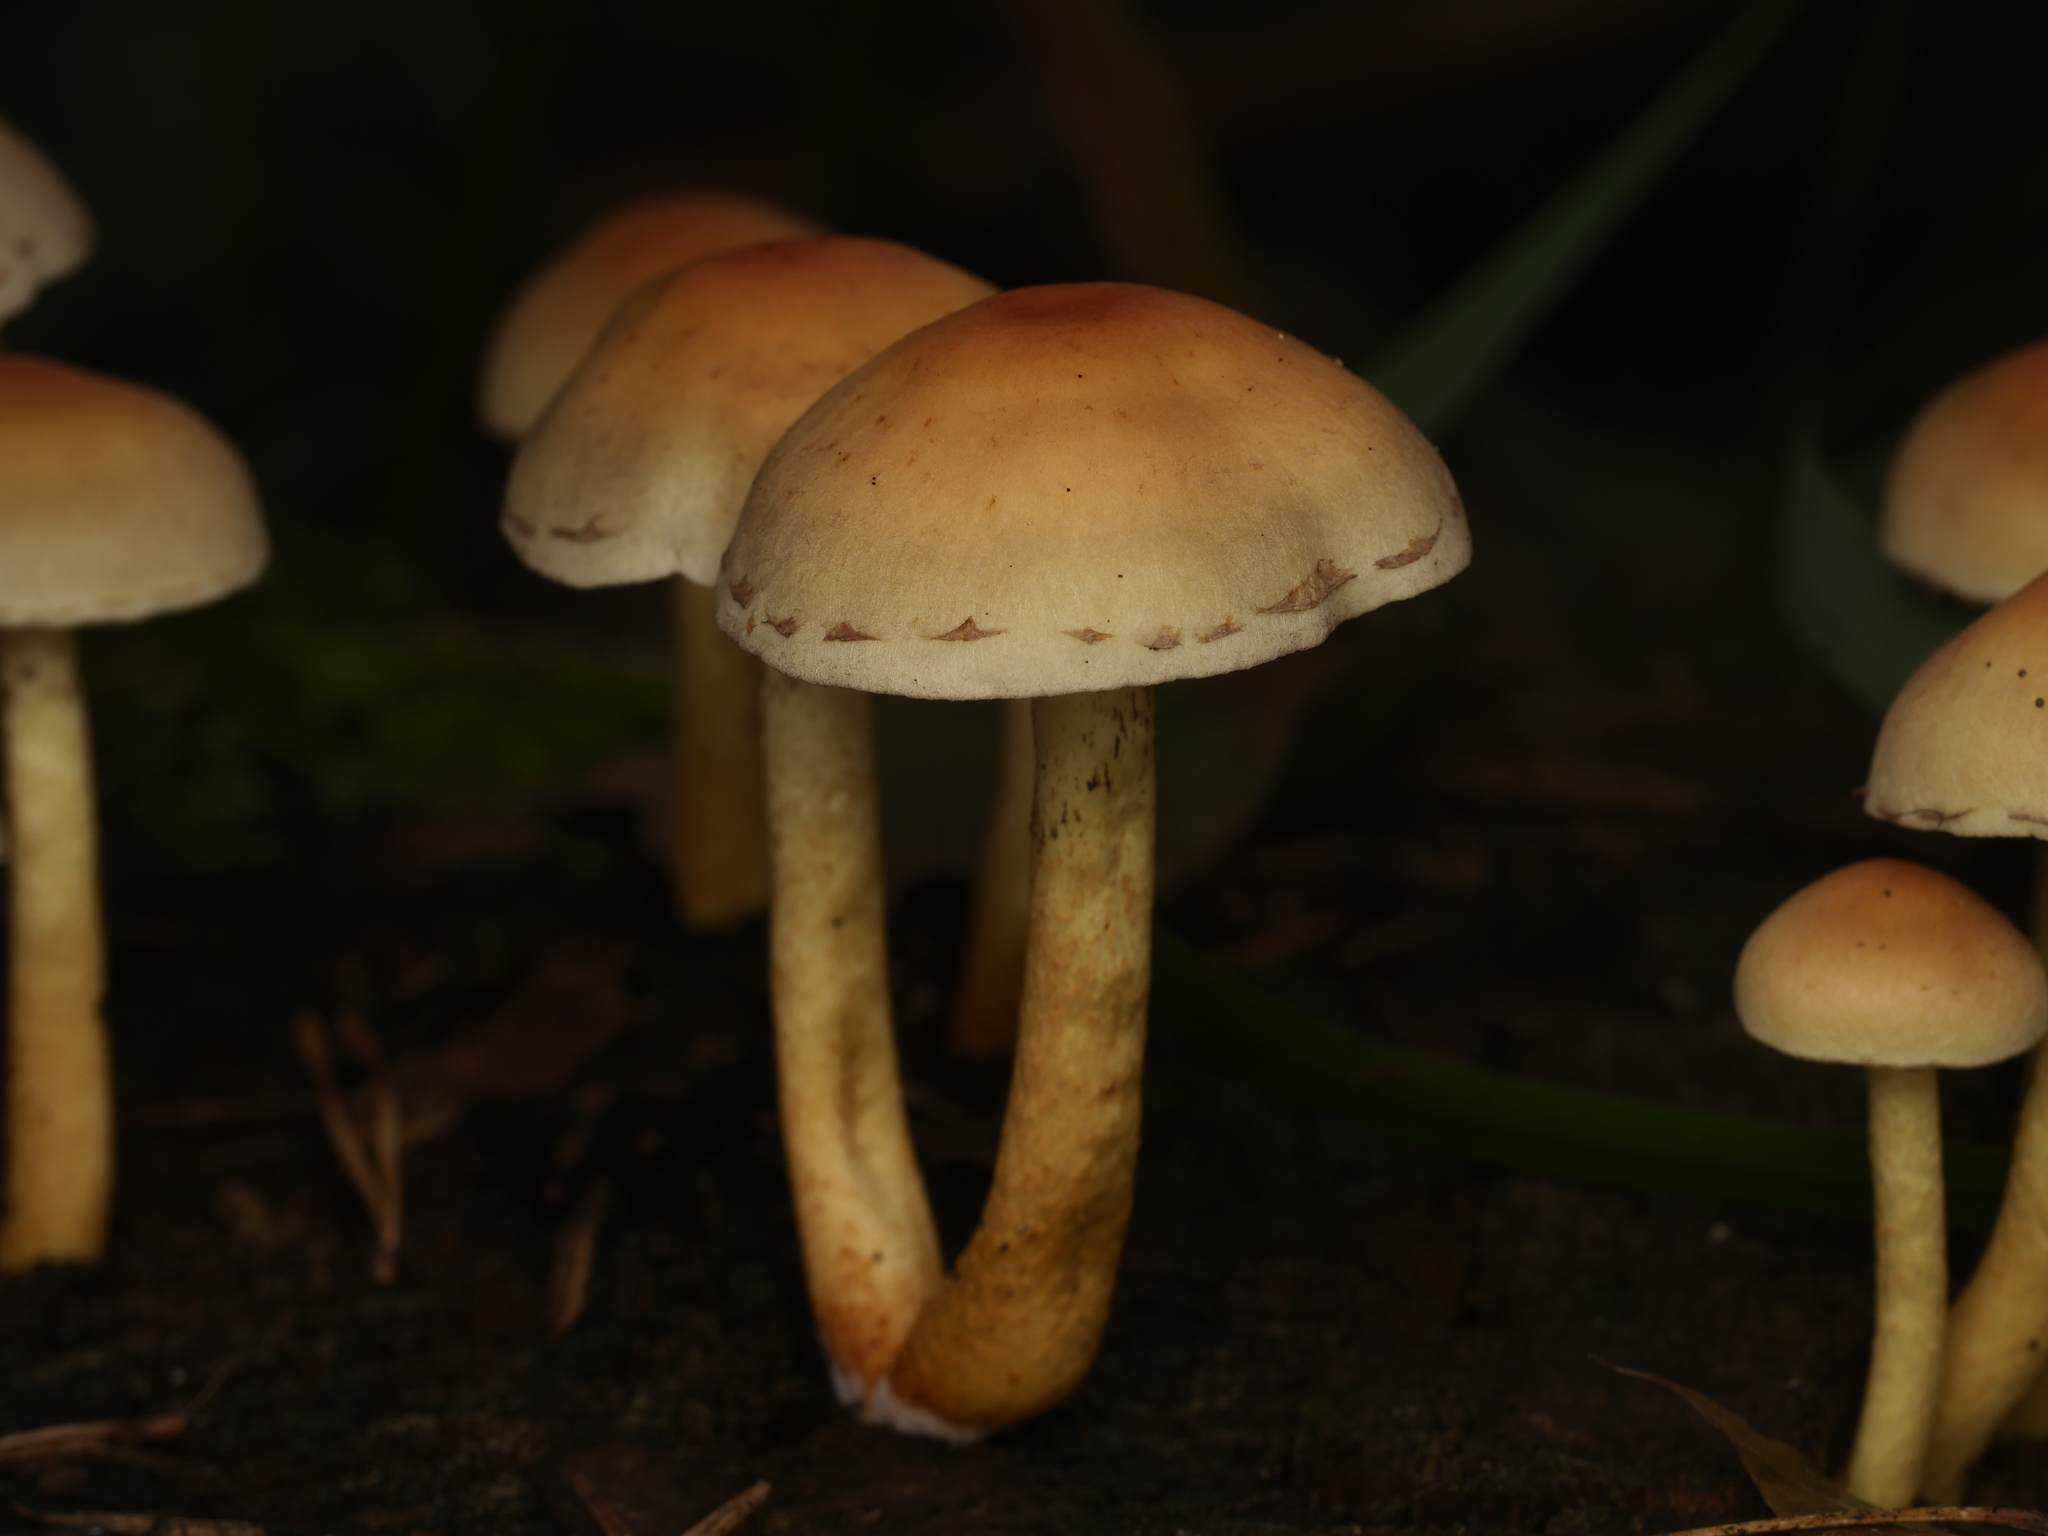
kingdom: Fungi
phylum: Basidiomycota
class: Agaricomycetes
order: Agaricales
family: Strophariaceae
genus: Hypholoma
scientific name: Hypholoma fasciculare
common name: Sulphur tuft
